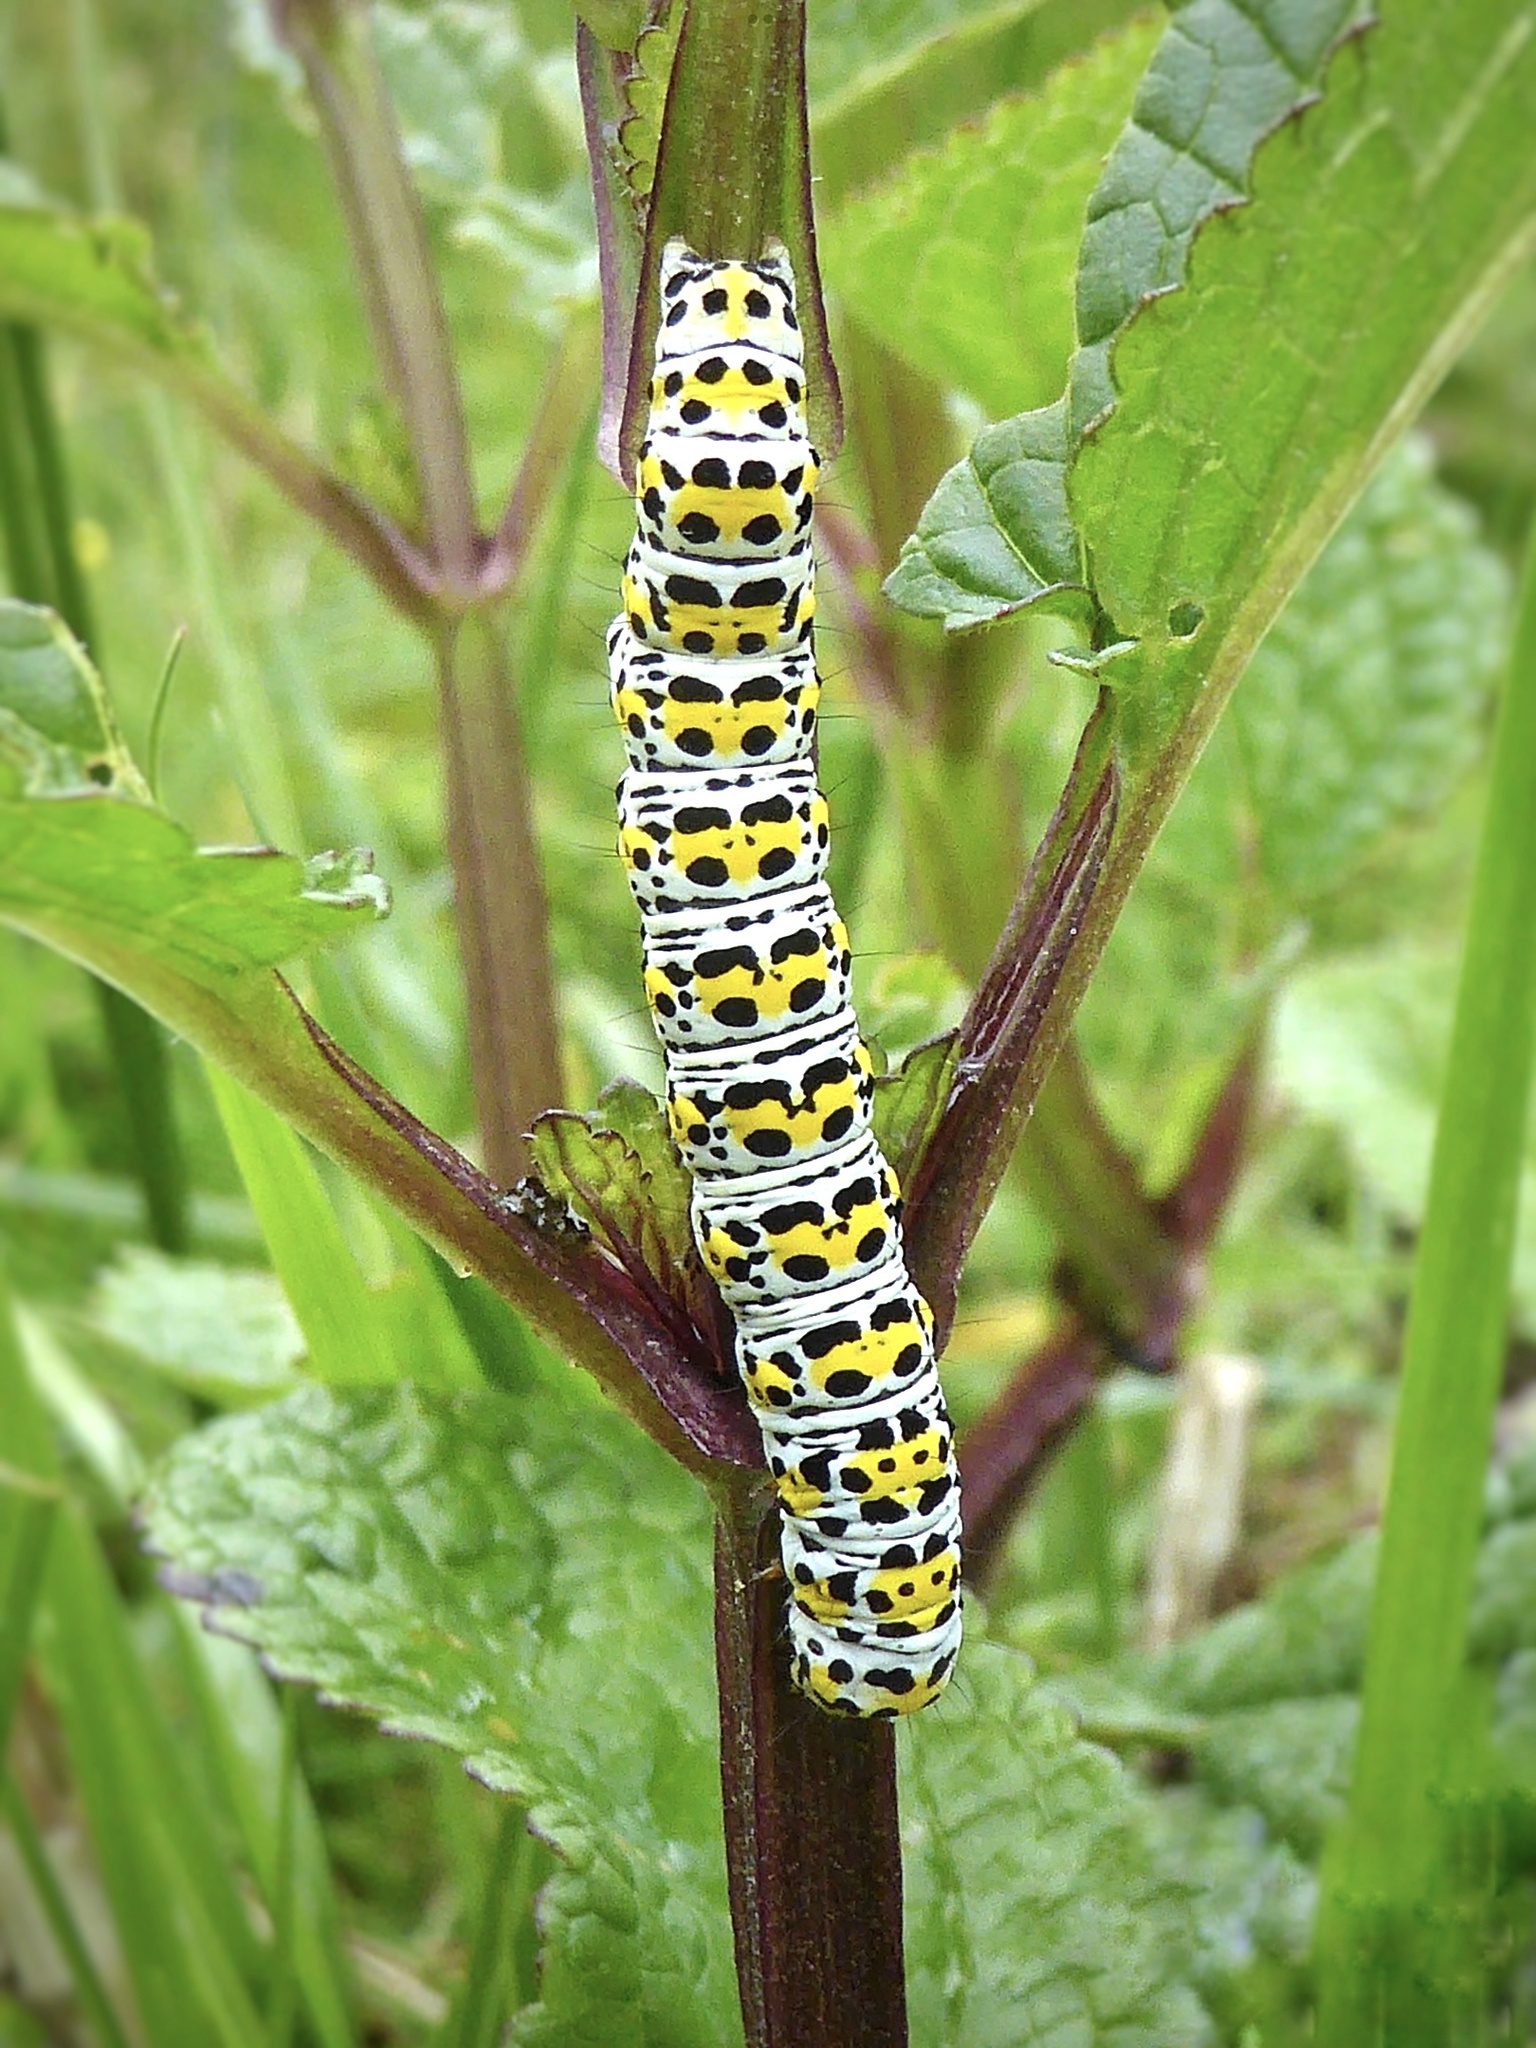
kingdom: Animalia
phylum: Arthropoda
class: Insecta
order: Lepidoptera
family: Noctuidae
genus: Cucullia
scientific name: Cucullia verbasci
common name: Mullein
